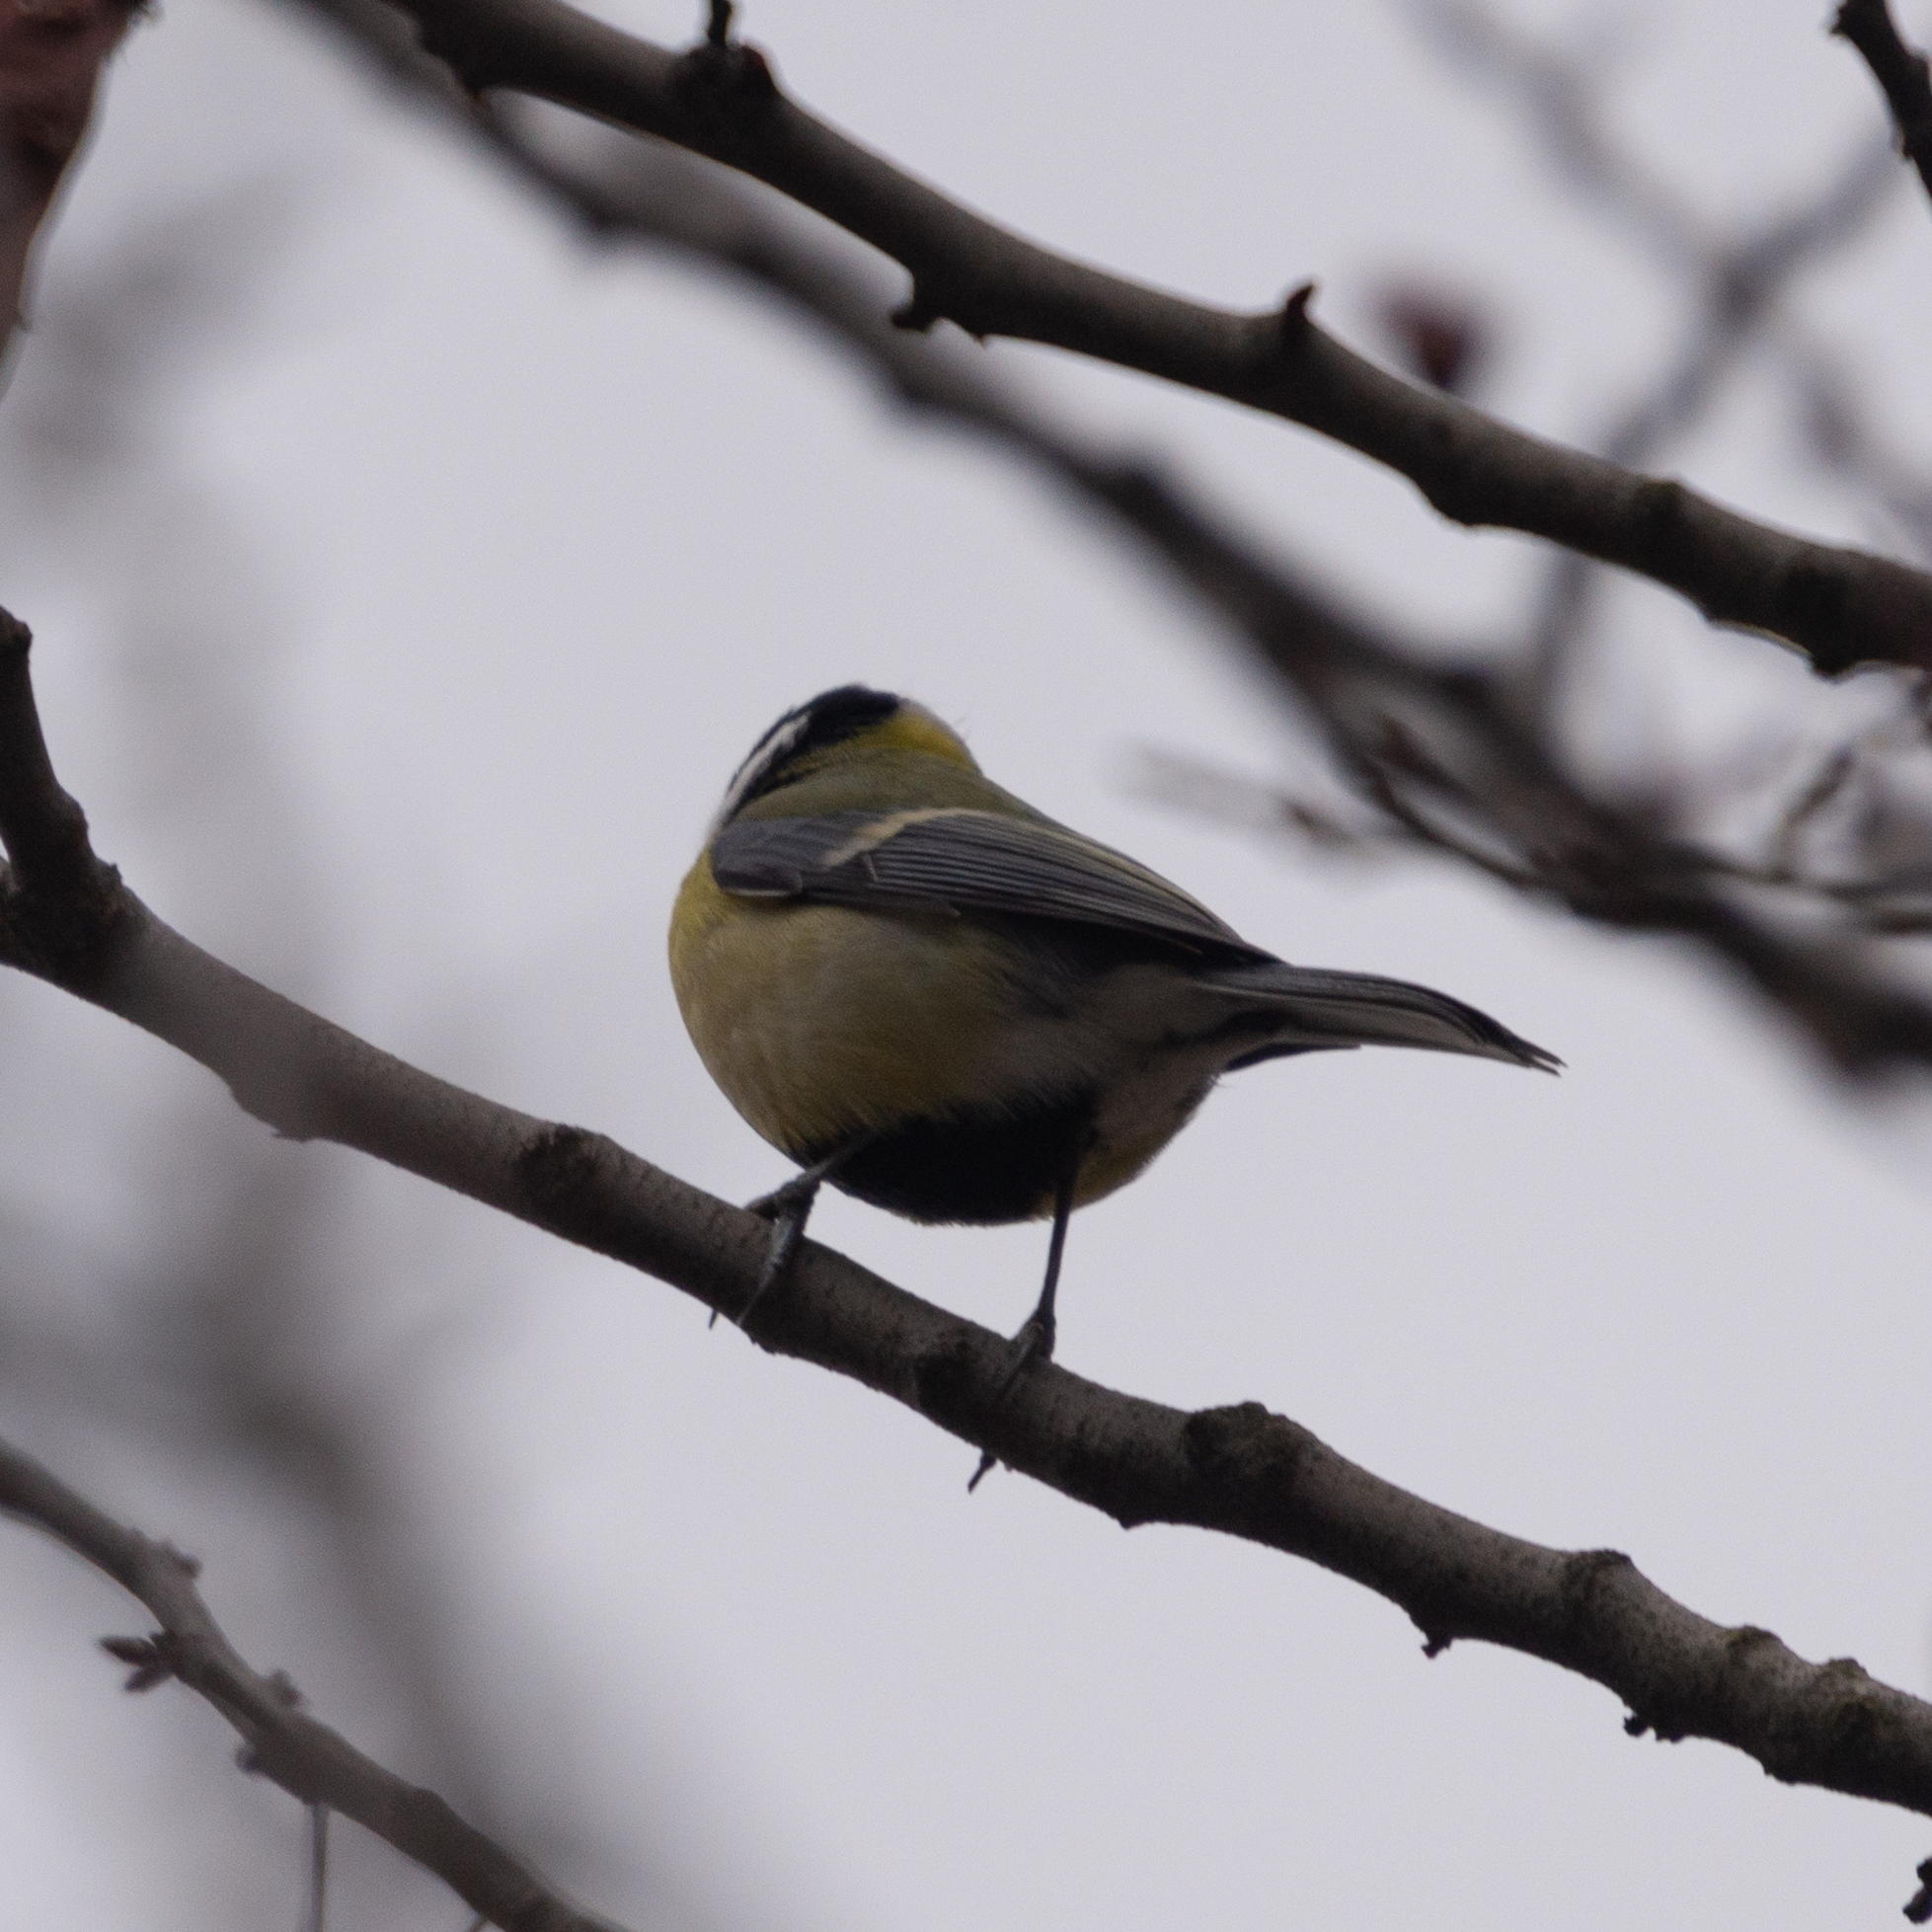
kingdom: Animalia
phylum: Chordata
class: Aves
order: Passeriformes
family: Paridae
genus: Parus
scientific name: Parus major
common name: Great tit
